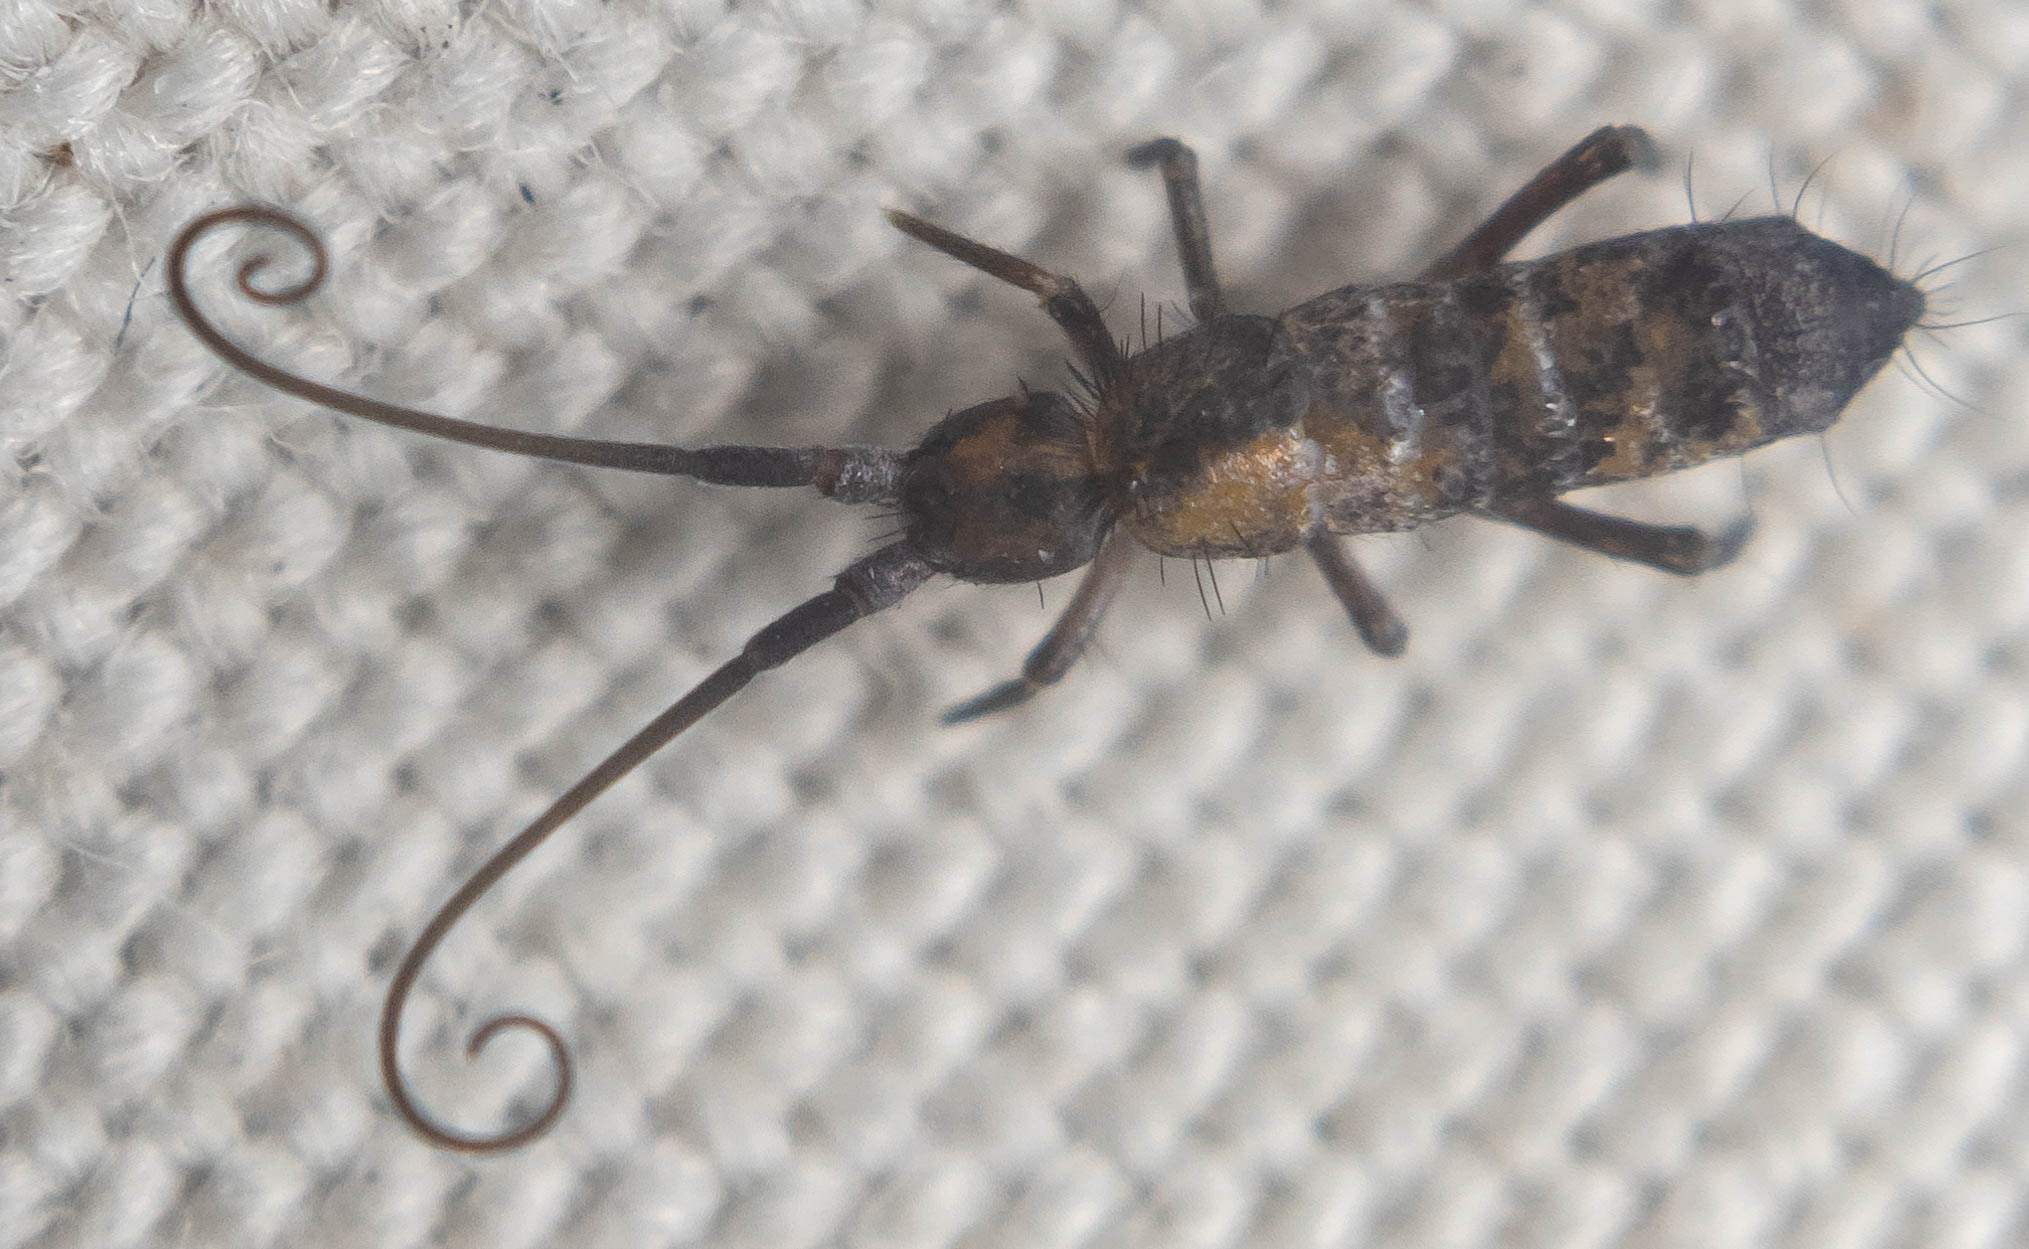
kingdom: Animalia
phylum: Arthropoda
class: Collembola
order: Entomobryomorpha
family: Tomoceridae
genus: Pogonognathellus
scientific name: Pogonognathellus longicornis
